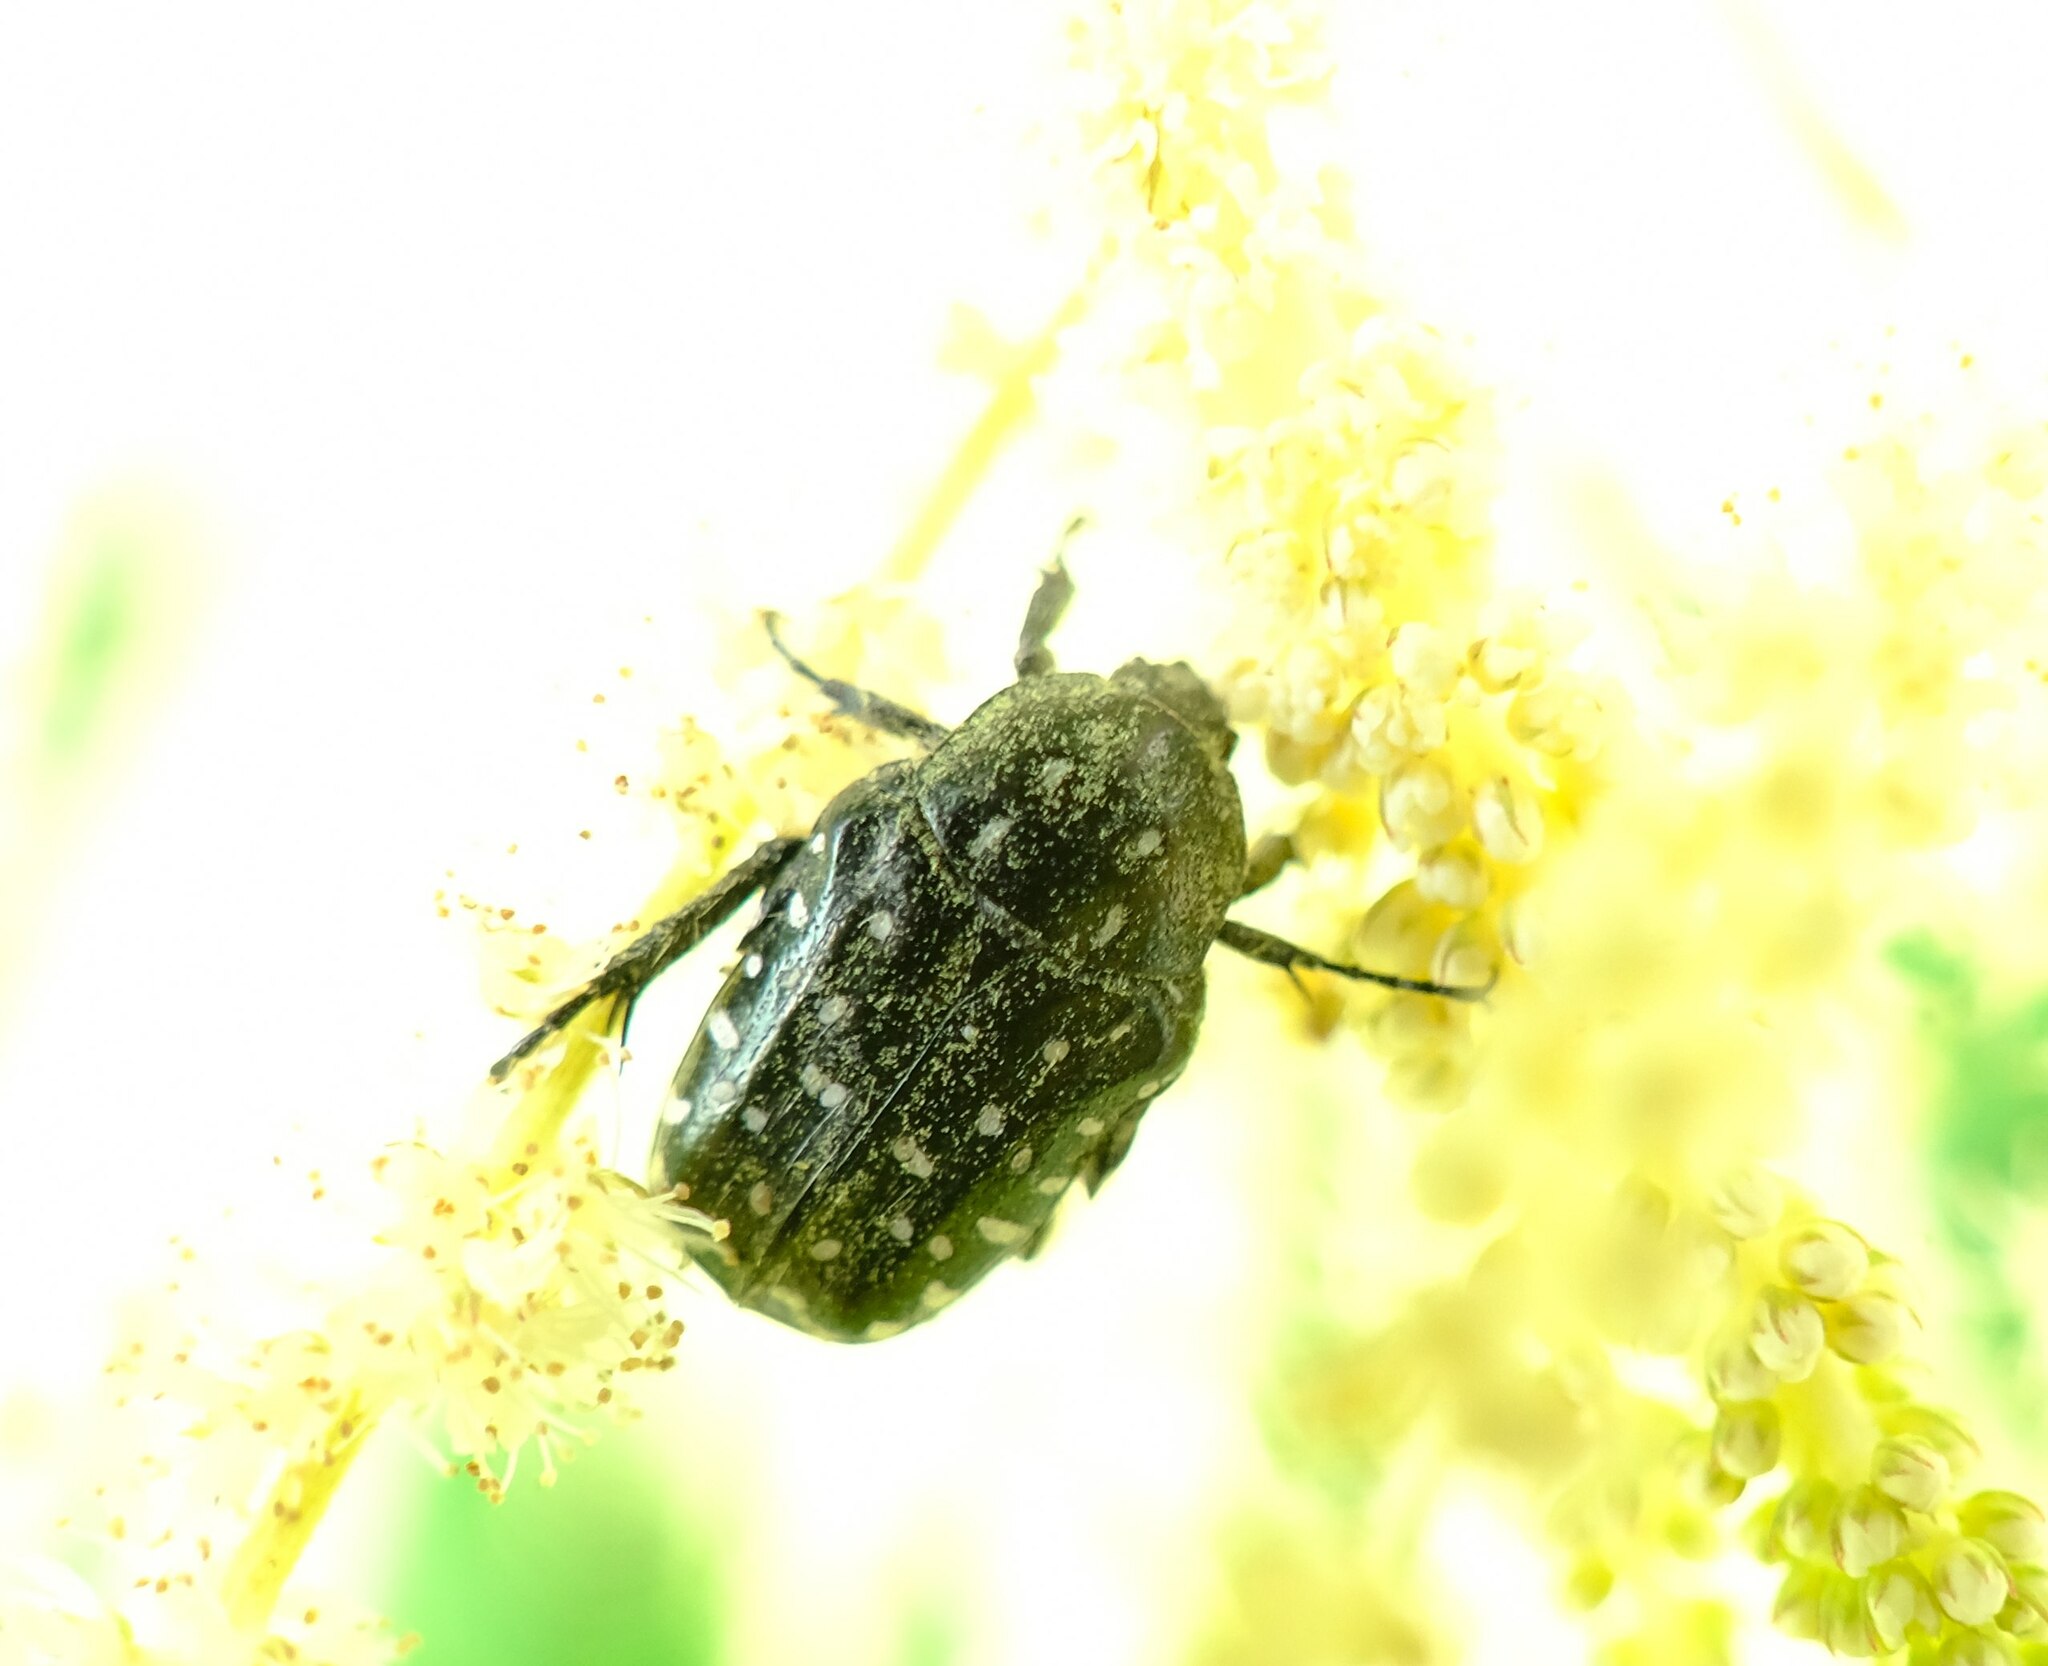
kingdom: Animalia
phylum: Arthropoda
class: Insecta
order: Coleoptera
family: Scarabaeidae
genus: Oxythyrea
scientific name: Oxythyrea funesta
